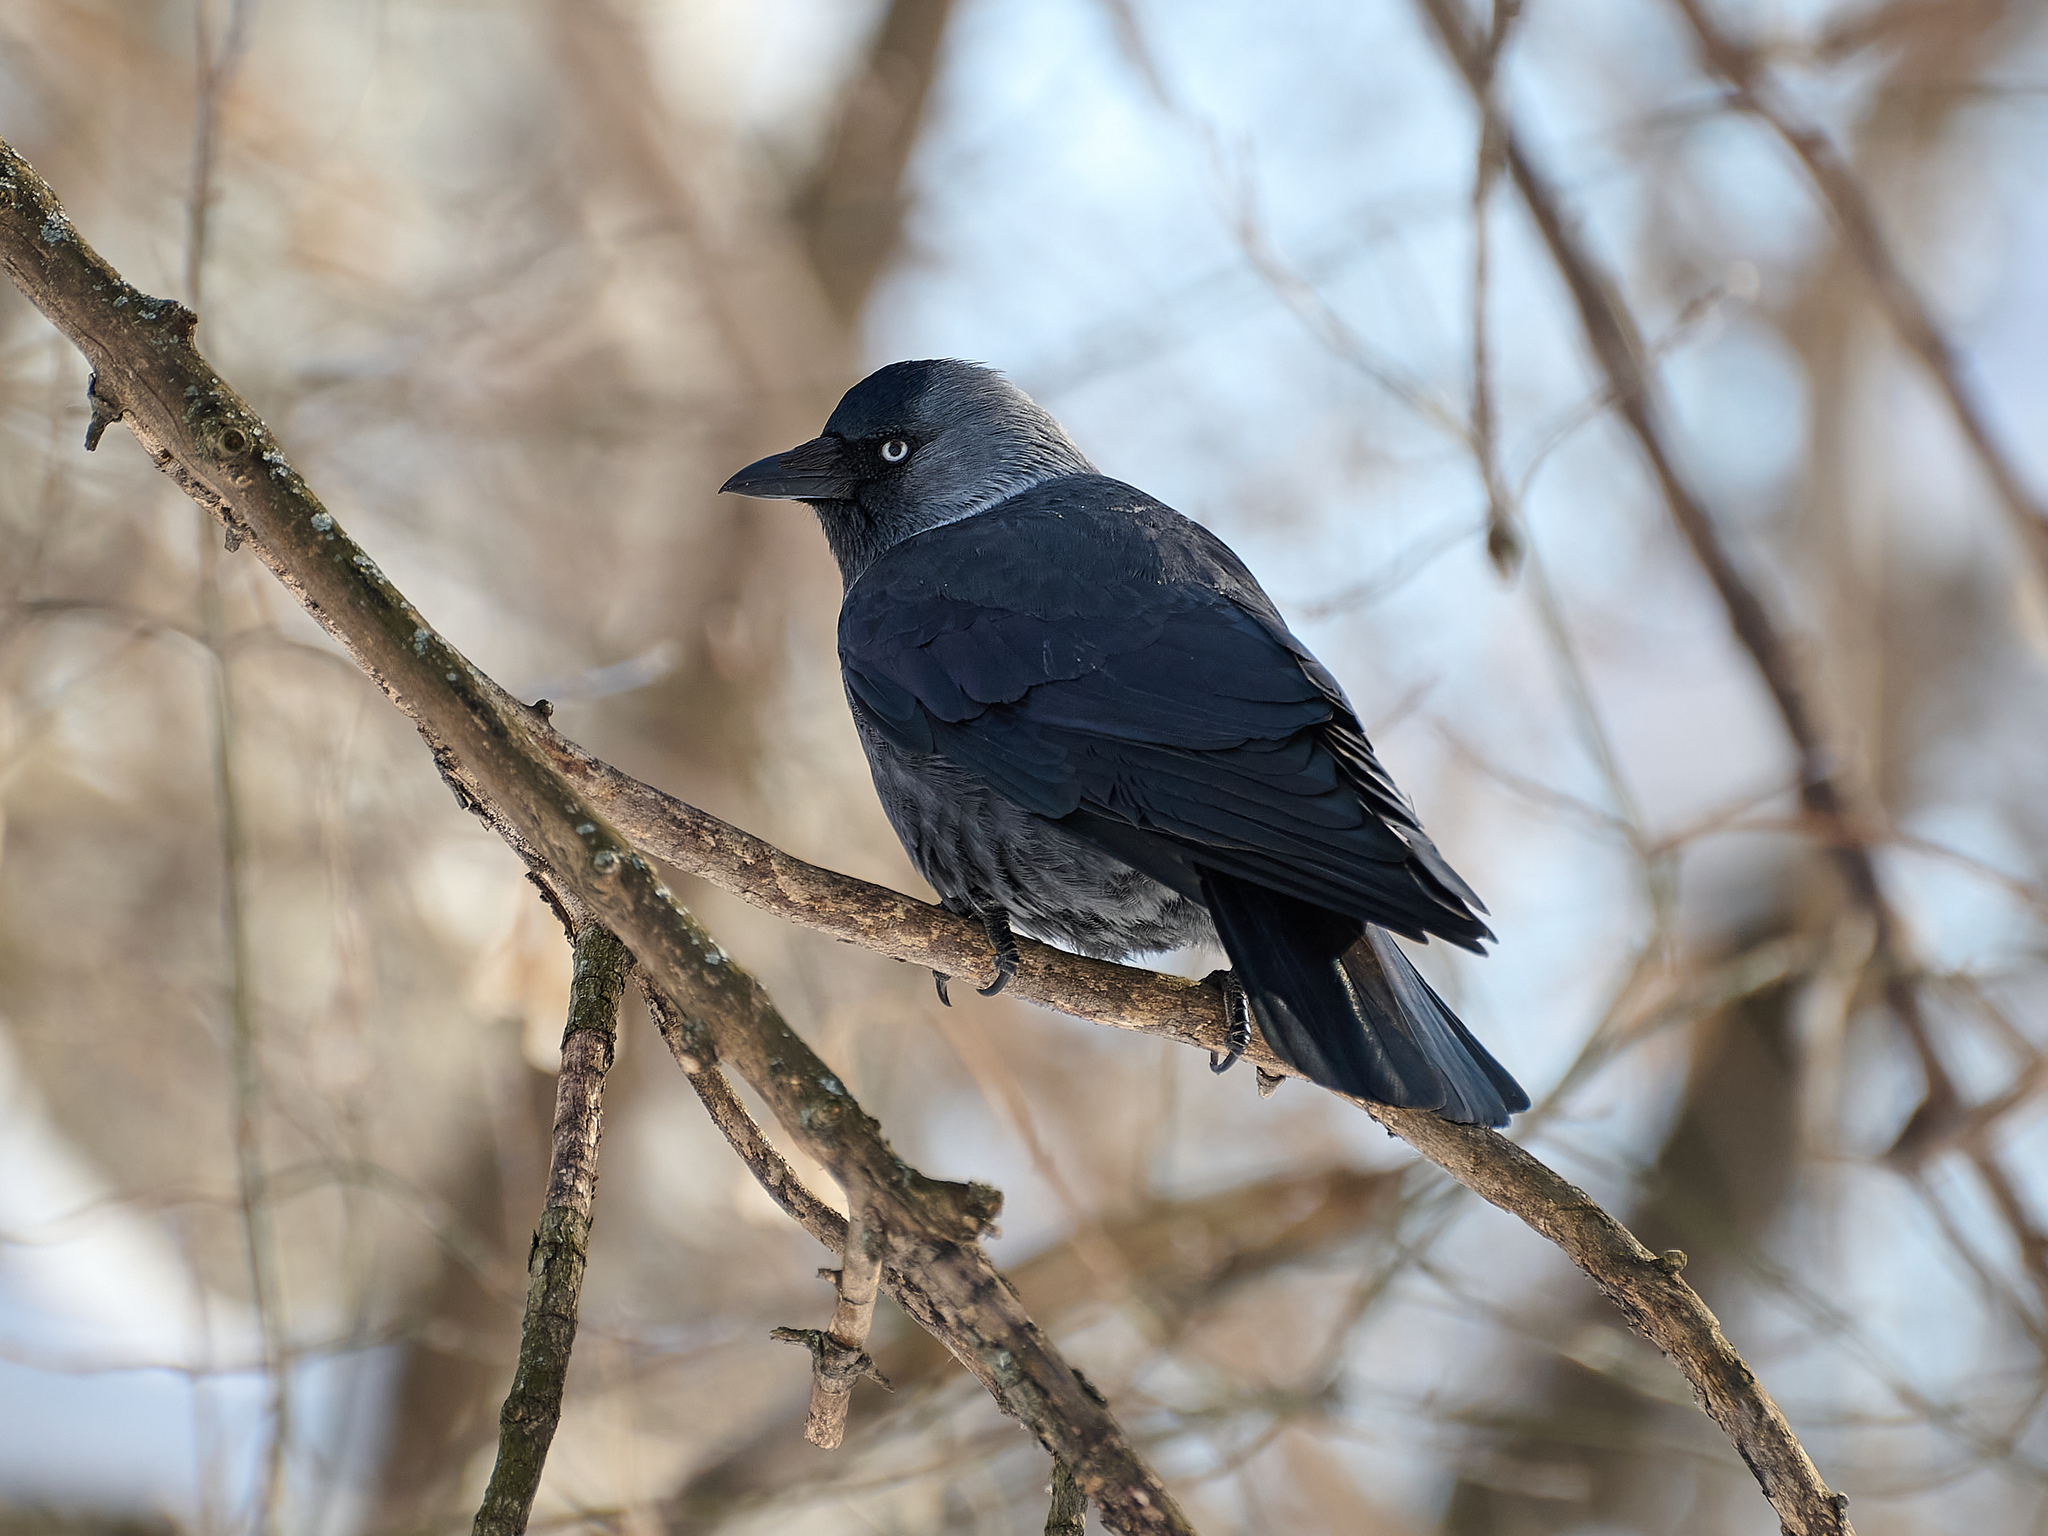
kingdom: Animalia
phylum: Chordata
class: Aves
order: Passeriformes
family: Corvidae
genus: Coloeus
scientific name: Coloeus monedula
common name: Western jackdaw
